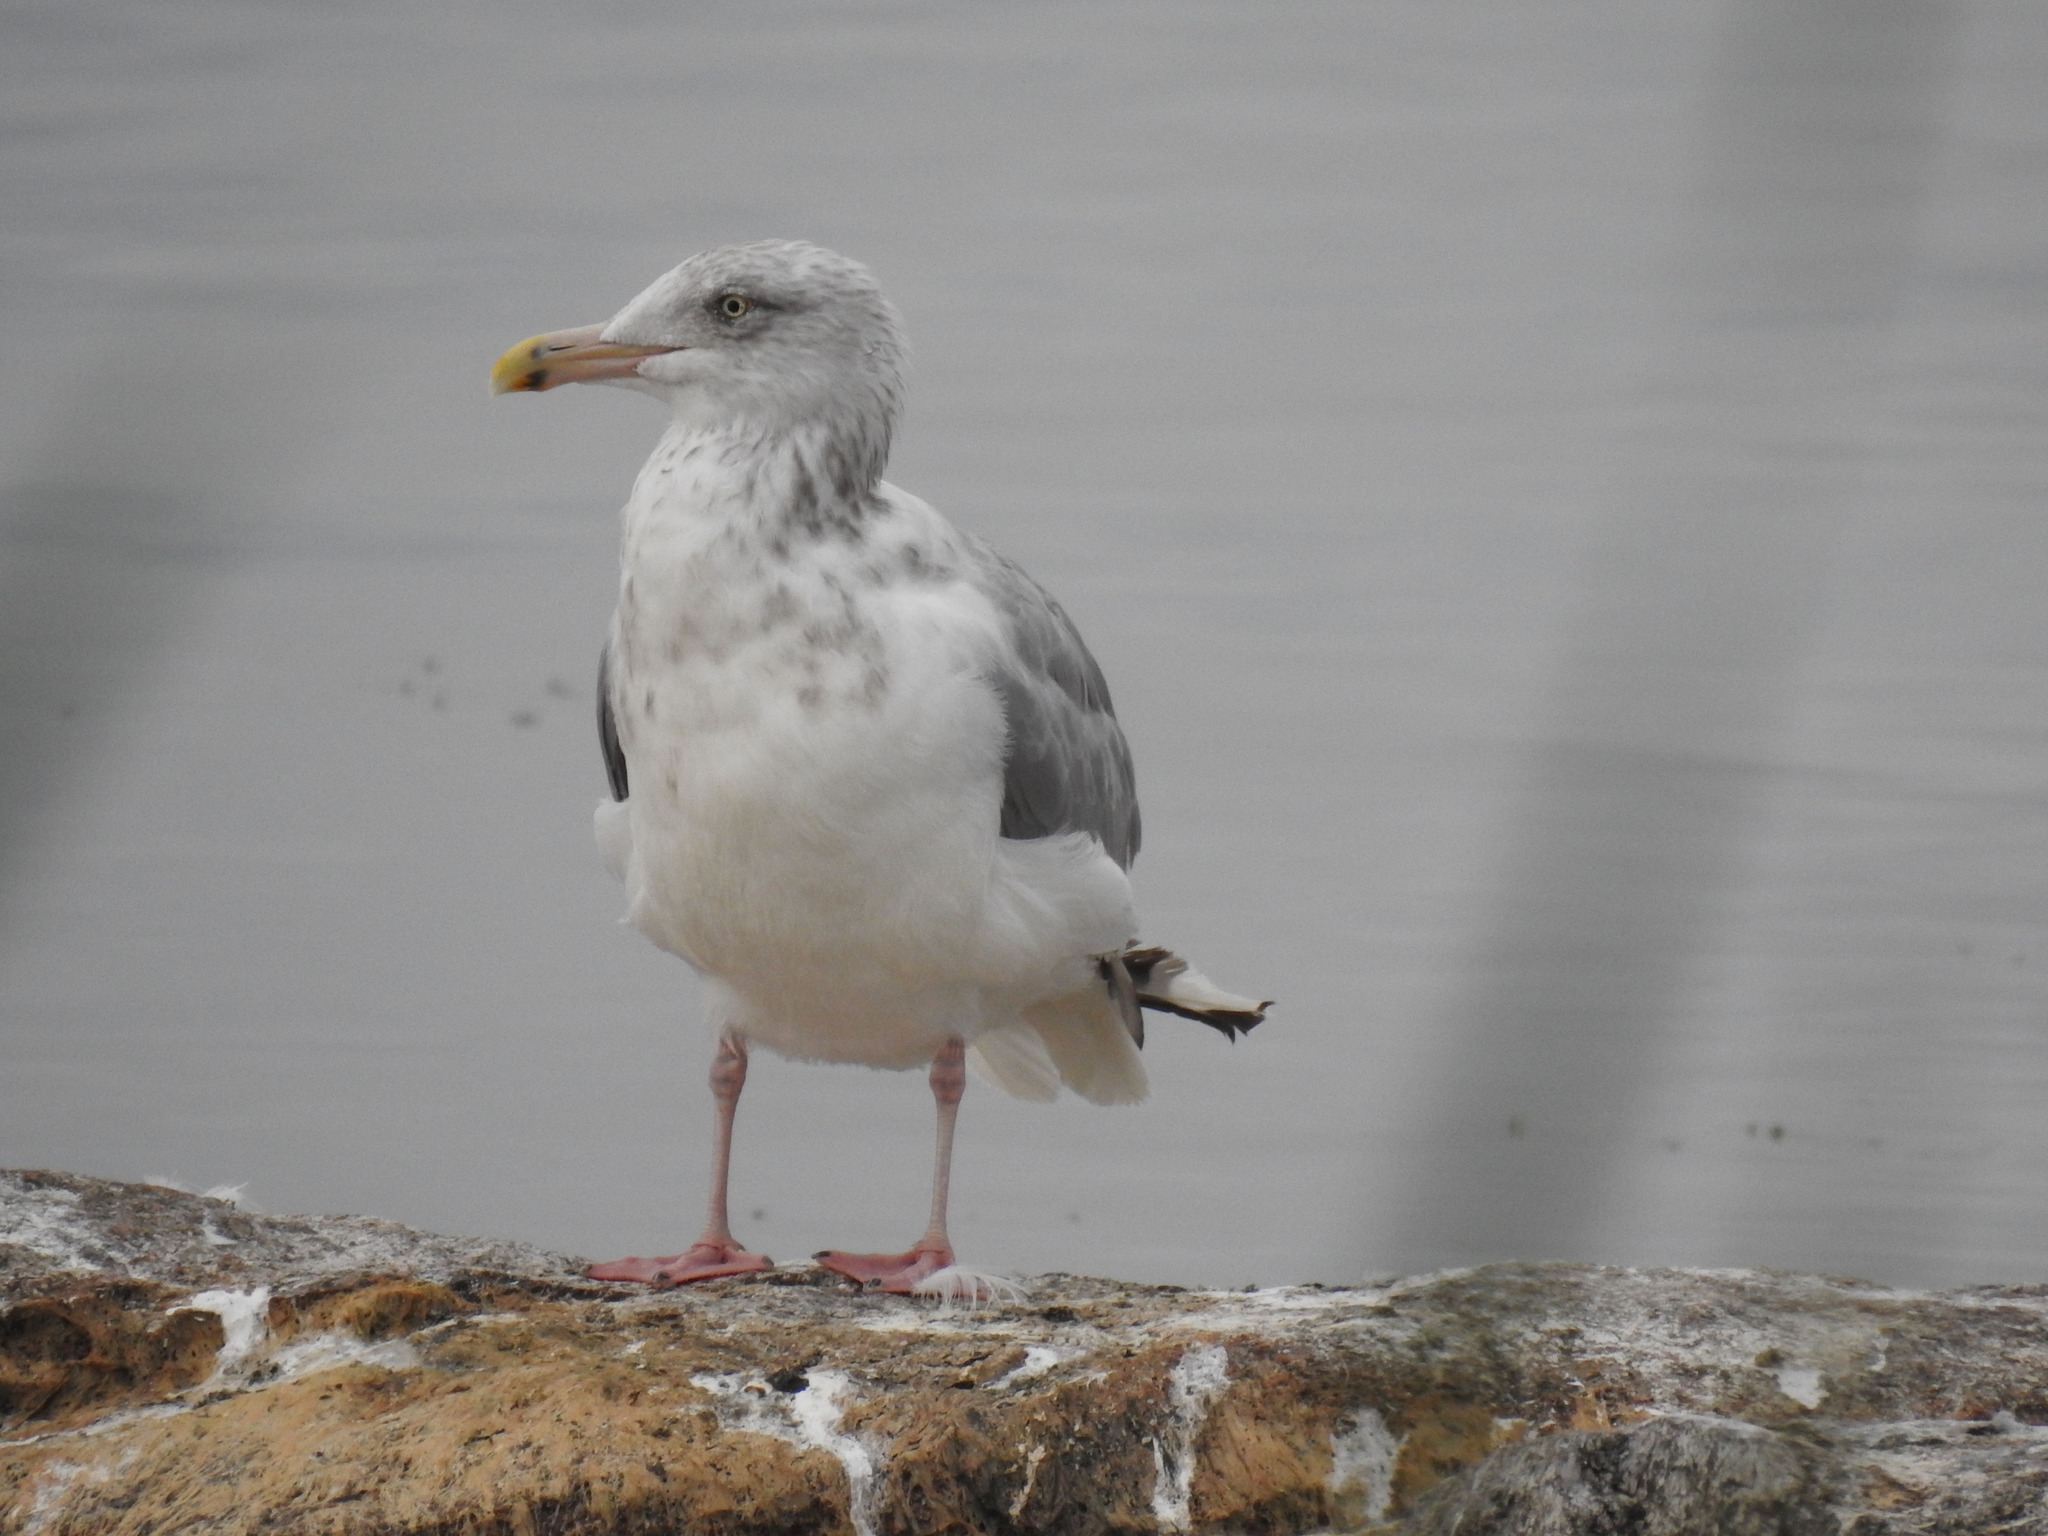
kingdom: Animalia
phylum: Chordata
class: Aves
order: Charadriiformes
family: Laridae
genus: Larus
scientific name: Larus argentatus
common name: Herring gull
